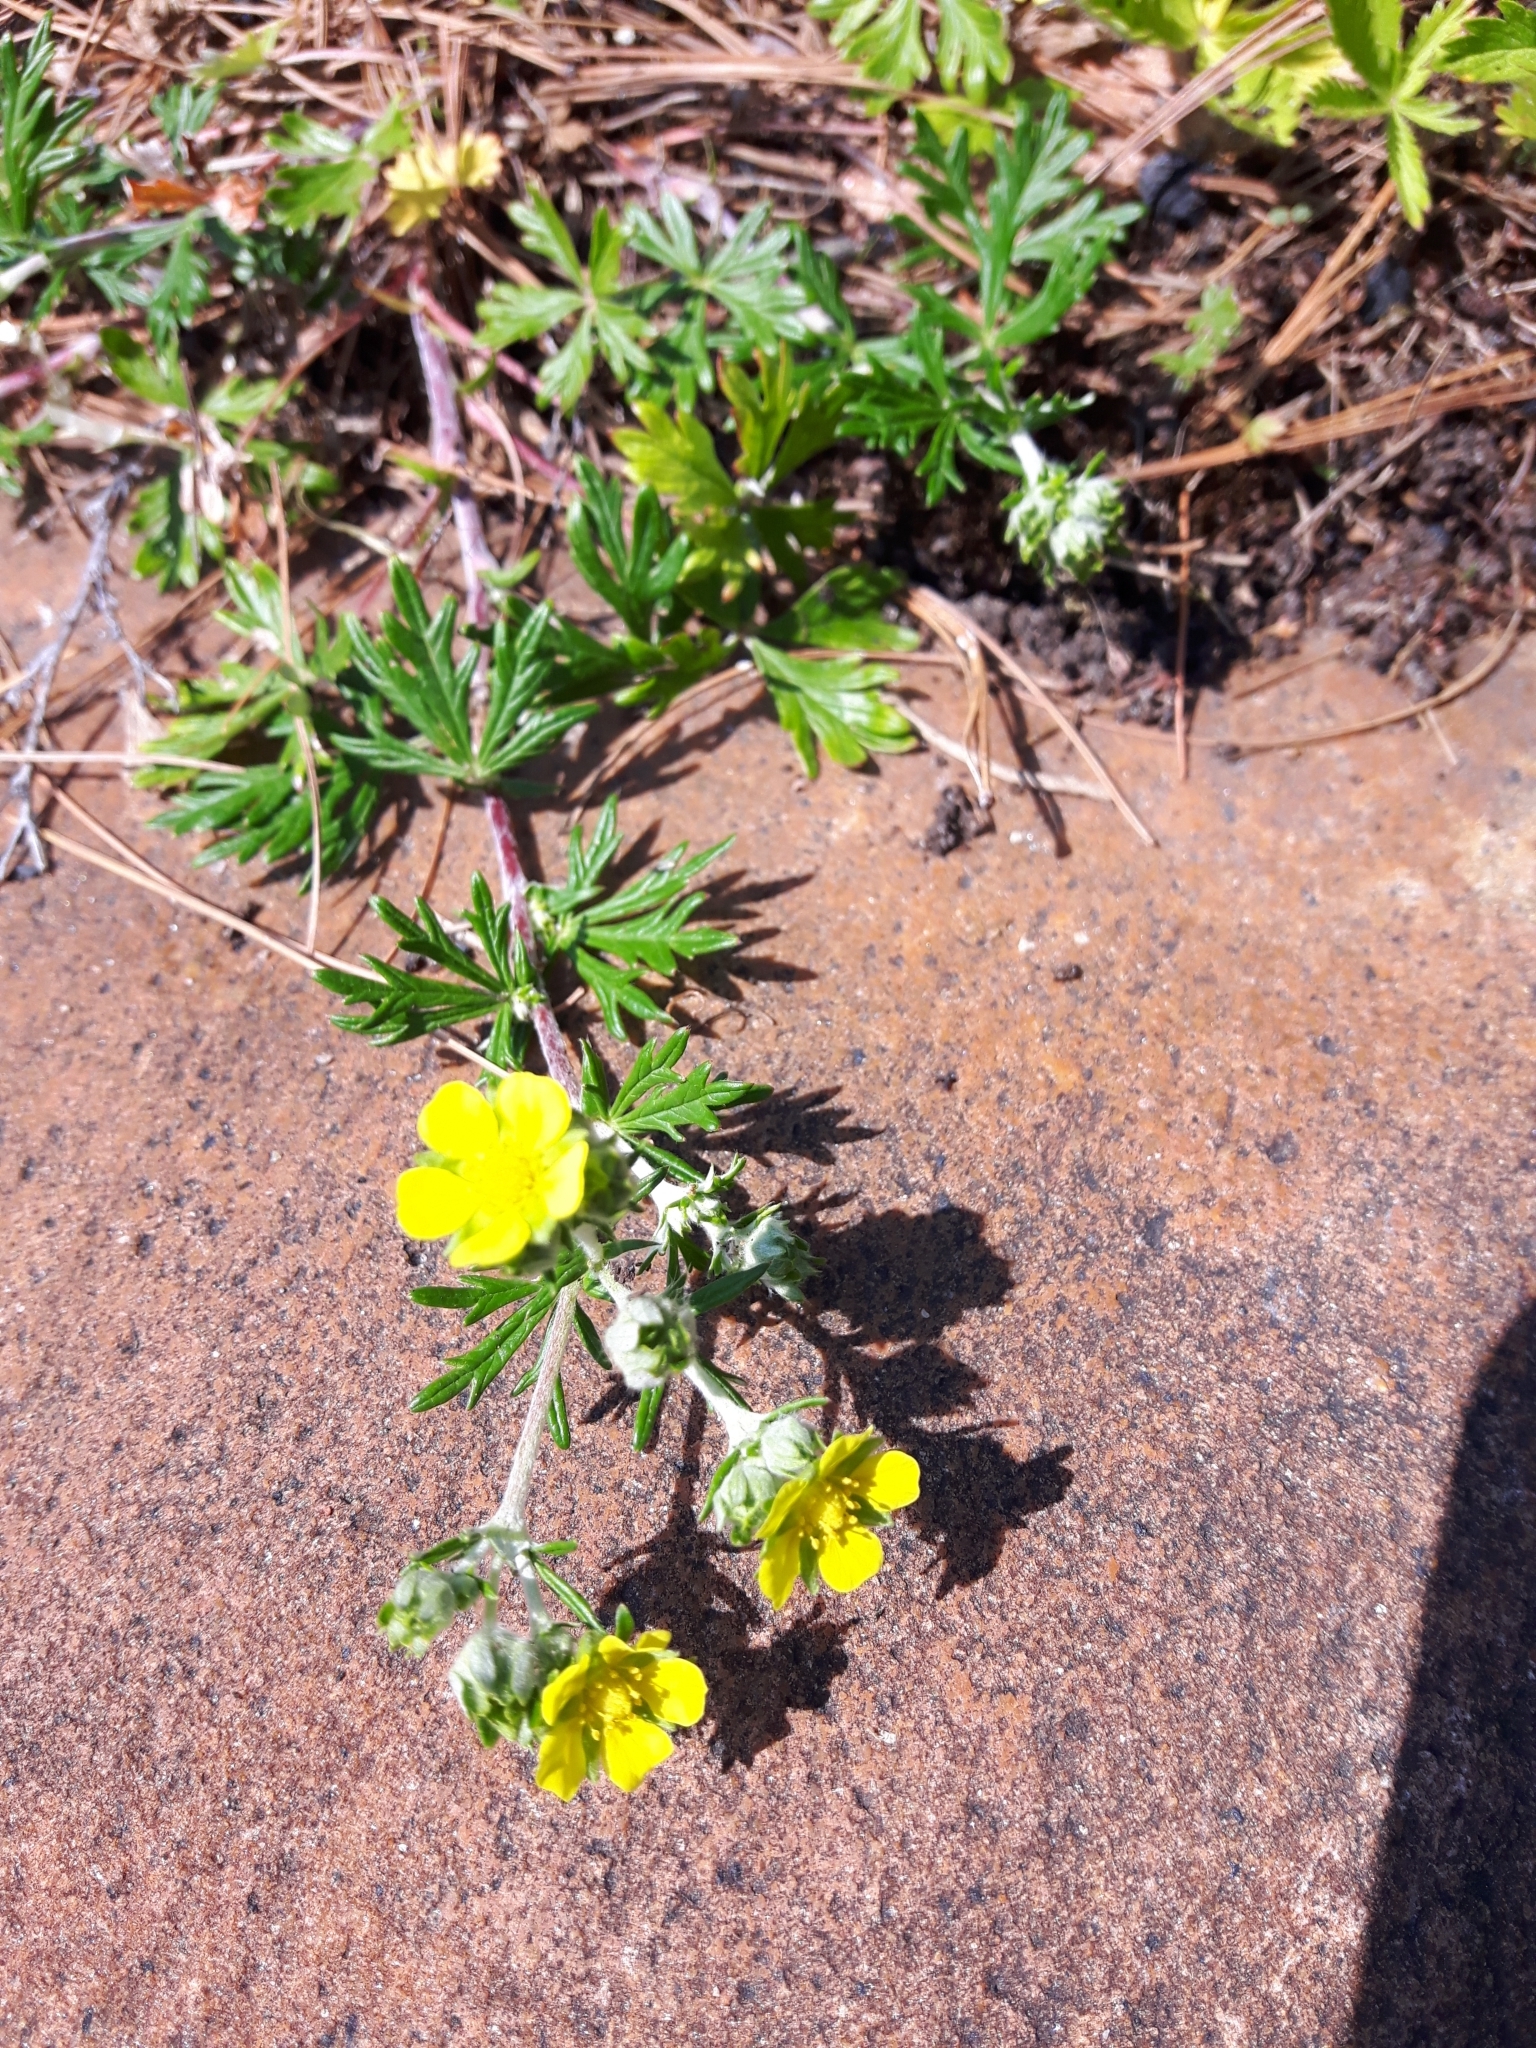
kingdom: Plantae
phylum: Tracheophyta
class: Magnoliopsida
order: Rosales
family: Rosaceae
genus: Potentilla
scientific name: Potentilla argentea
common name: Hoary cinquefoil
